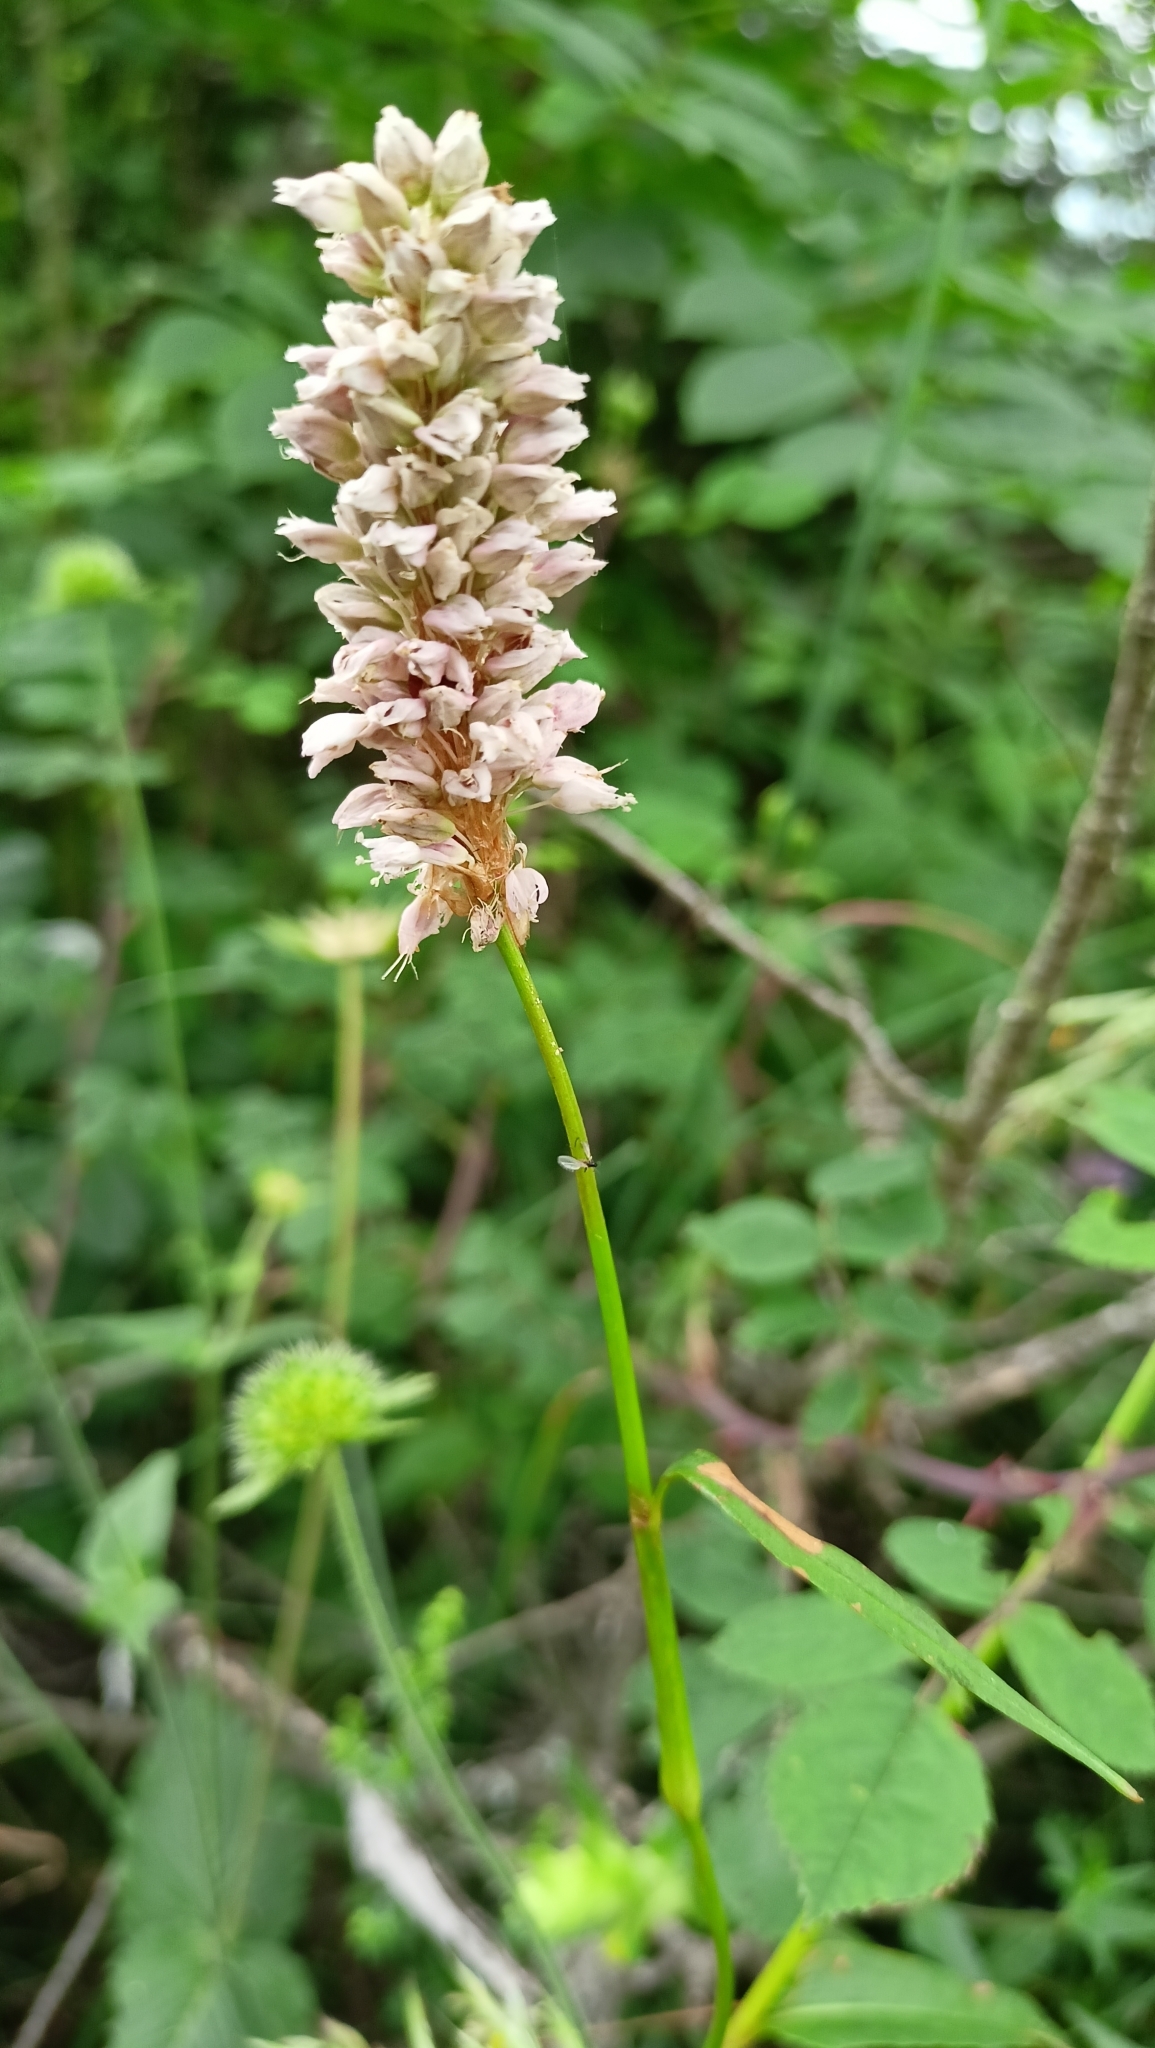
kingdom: Plantae
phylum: Tracheophyta
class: Magnoliopsida
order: Caryophyllales
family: Polygonaceae
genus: Bistorta
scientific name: Bistorta officinalis
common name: Common bistort
